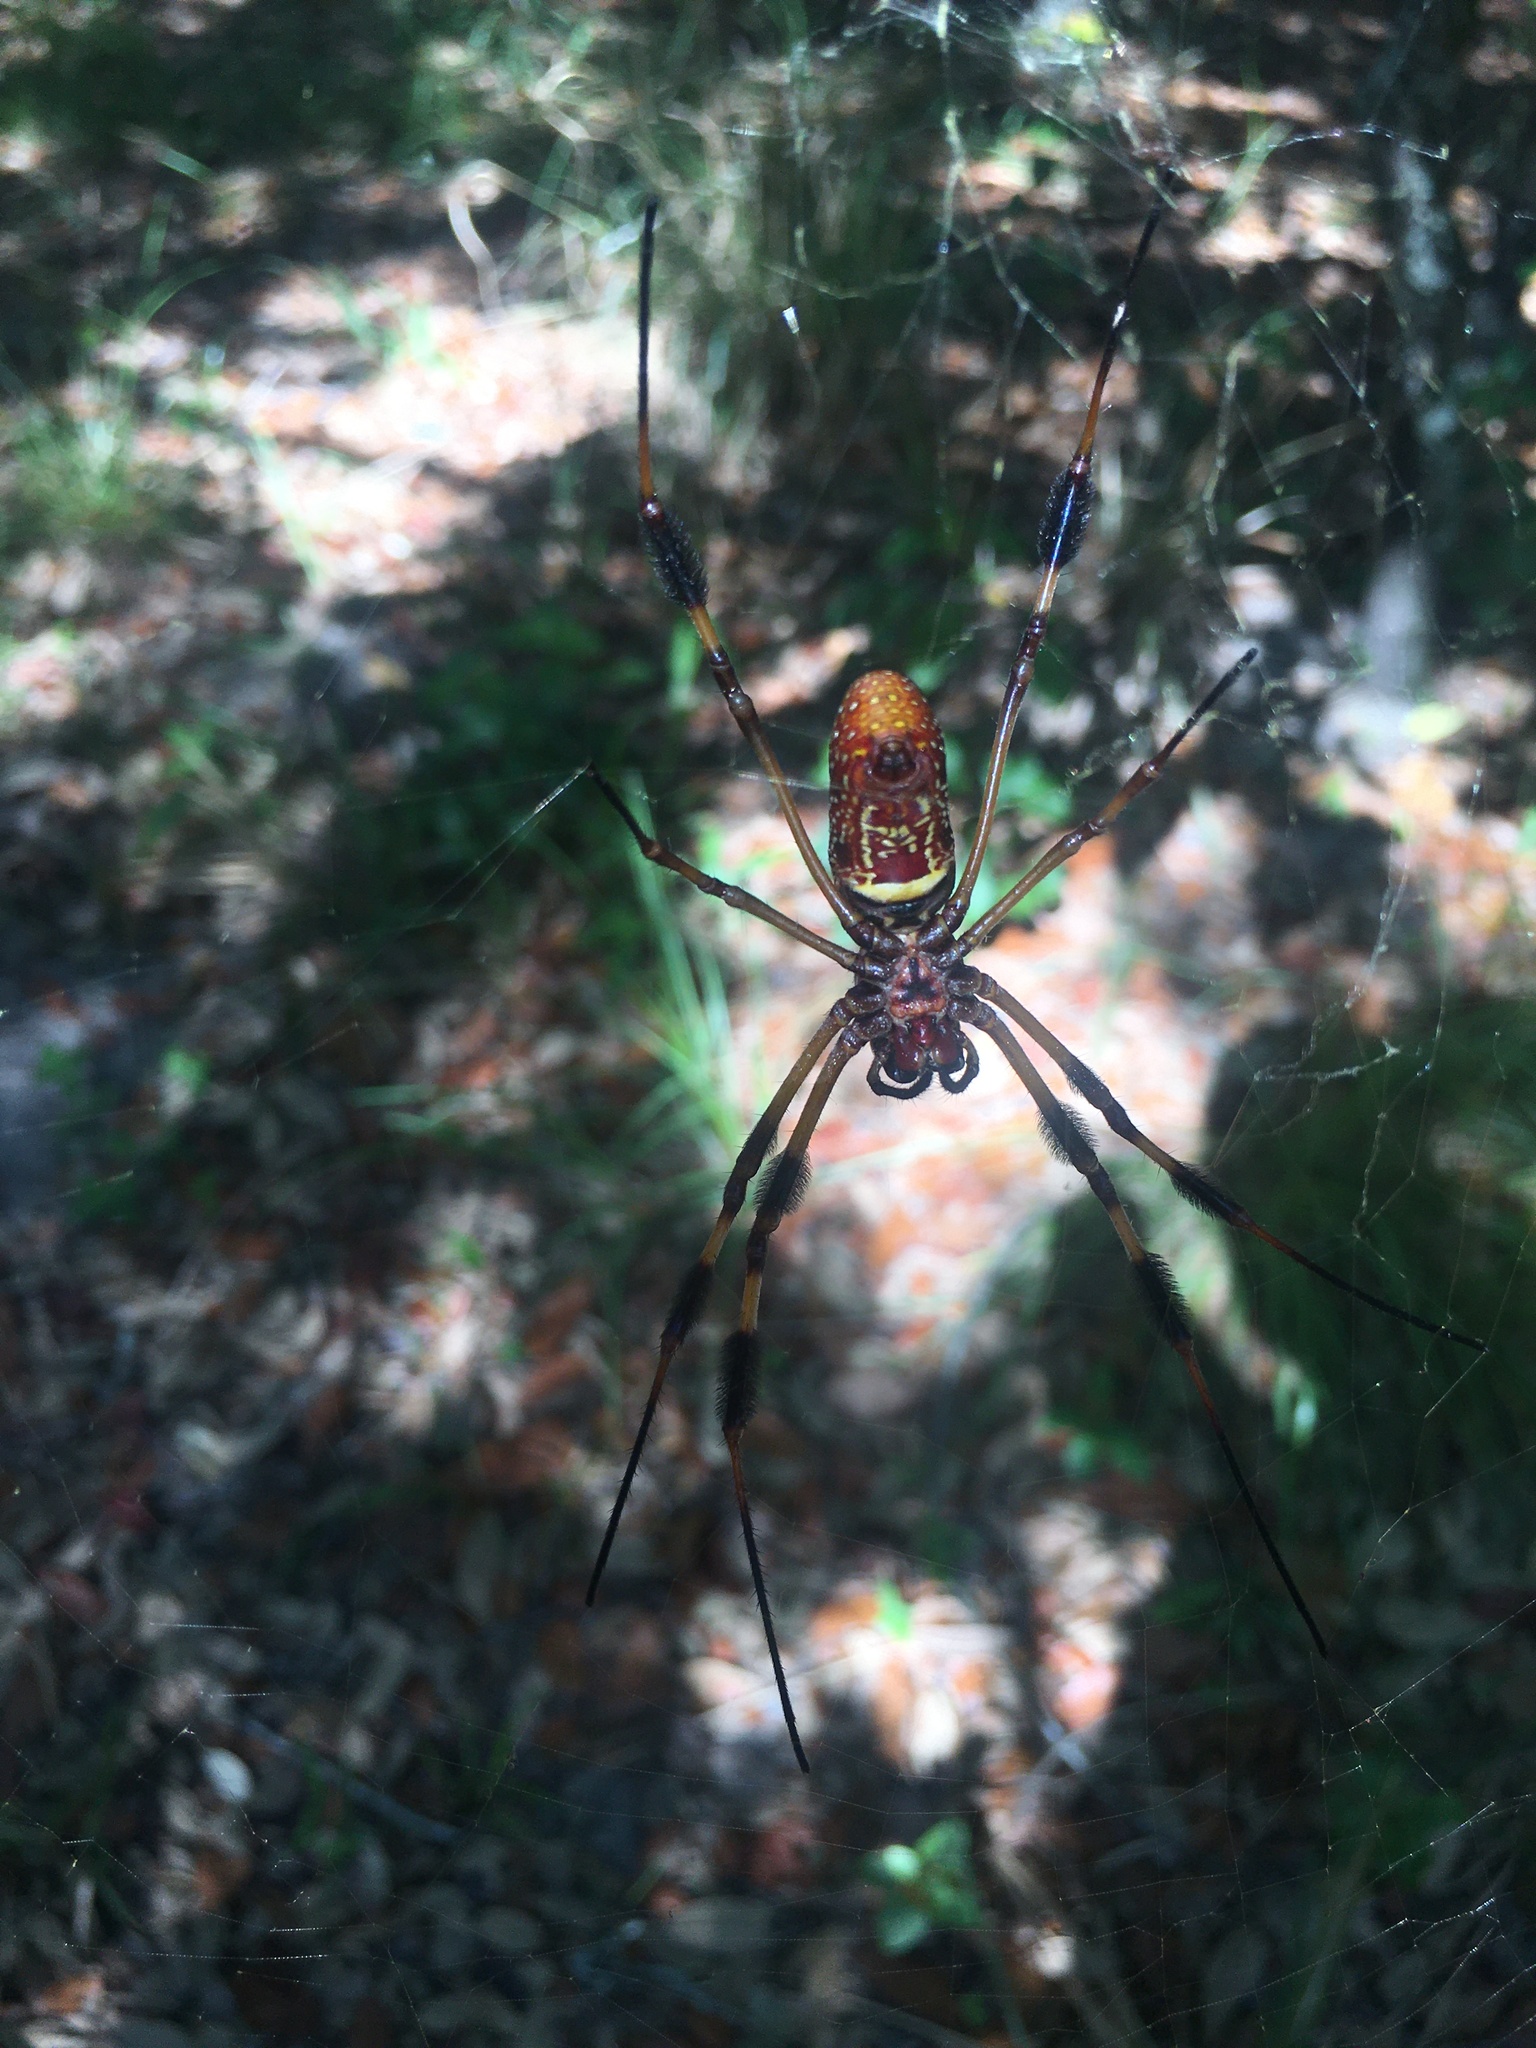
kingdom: Animalia
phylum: Arthropoda
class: Arachnida
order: Araneae
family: Araneidae
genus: Trichonephila
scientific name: Trichonephila clavipes
